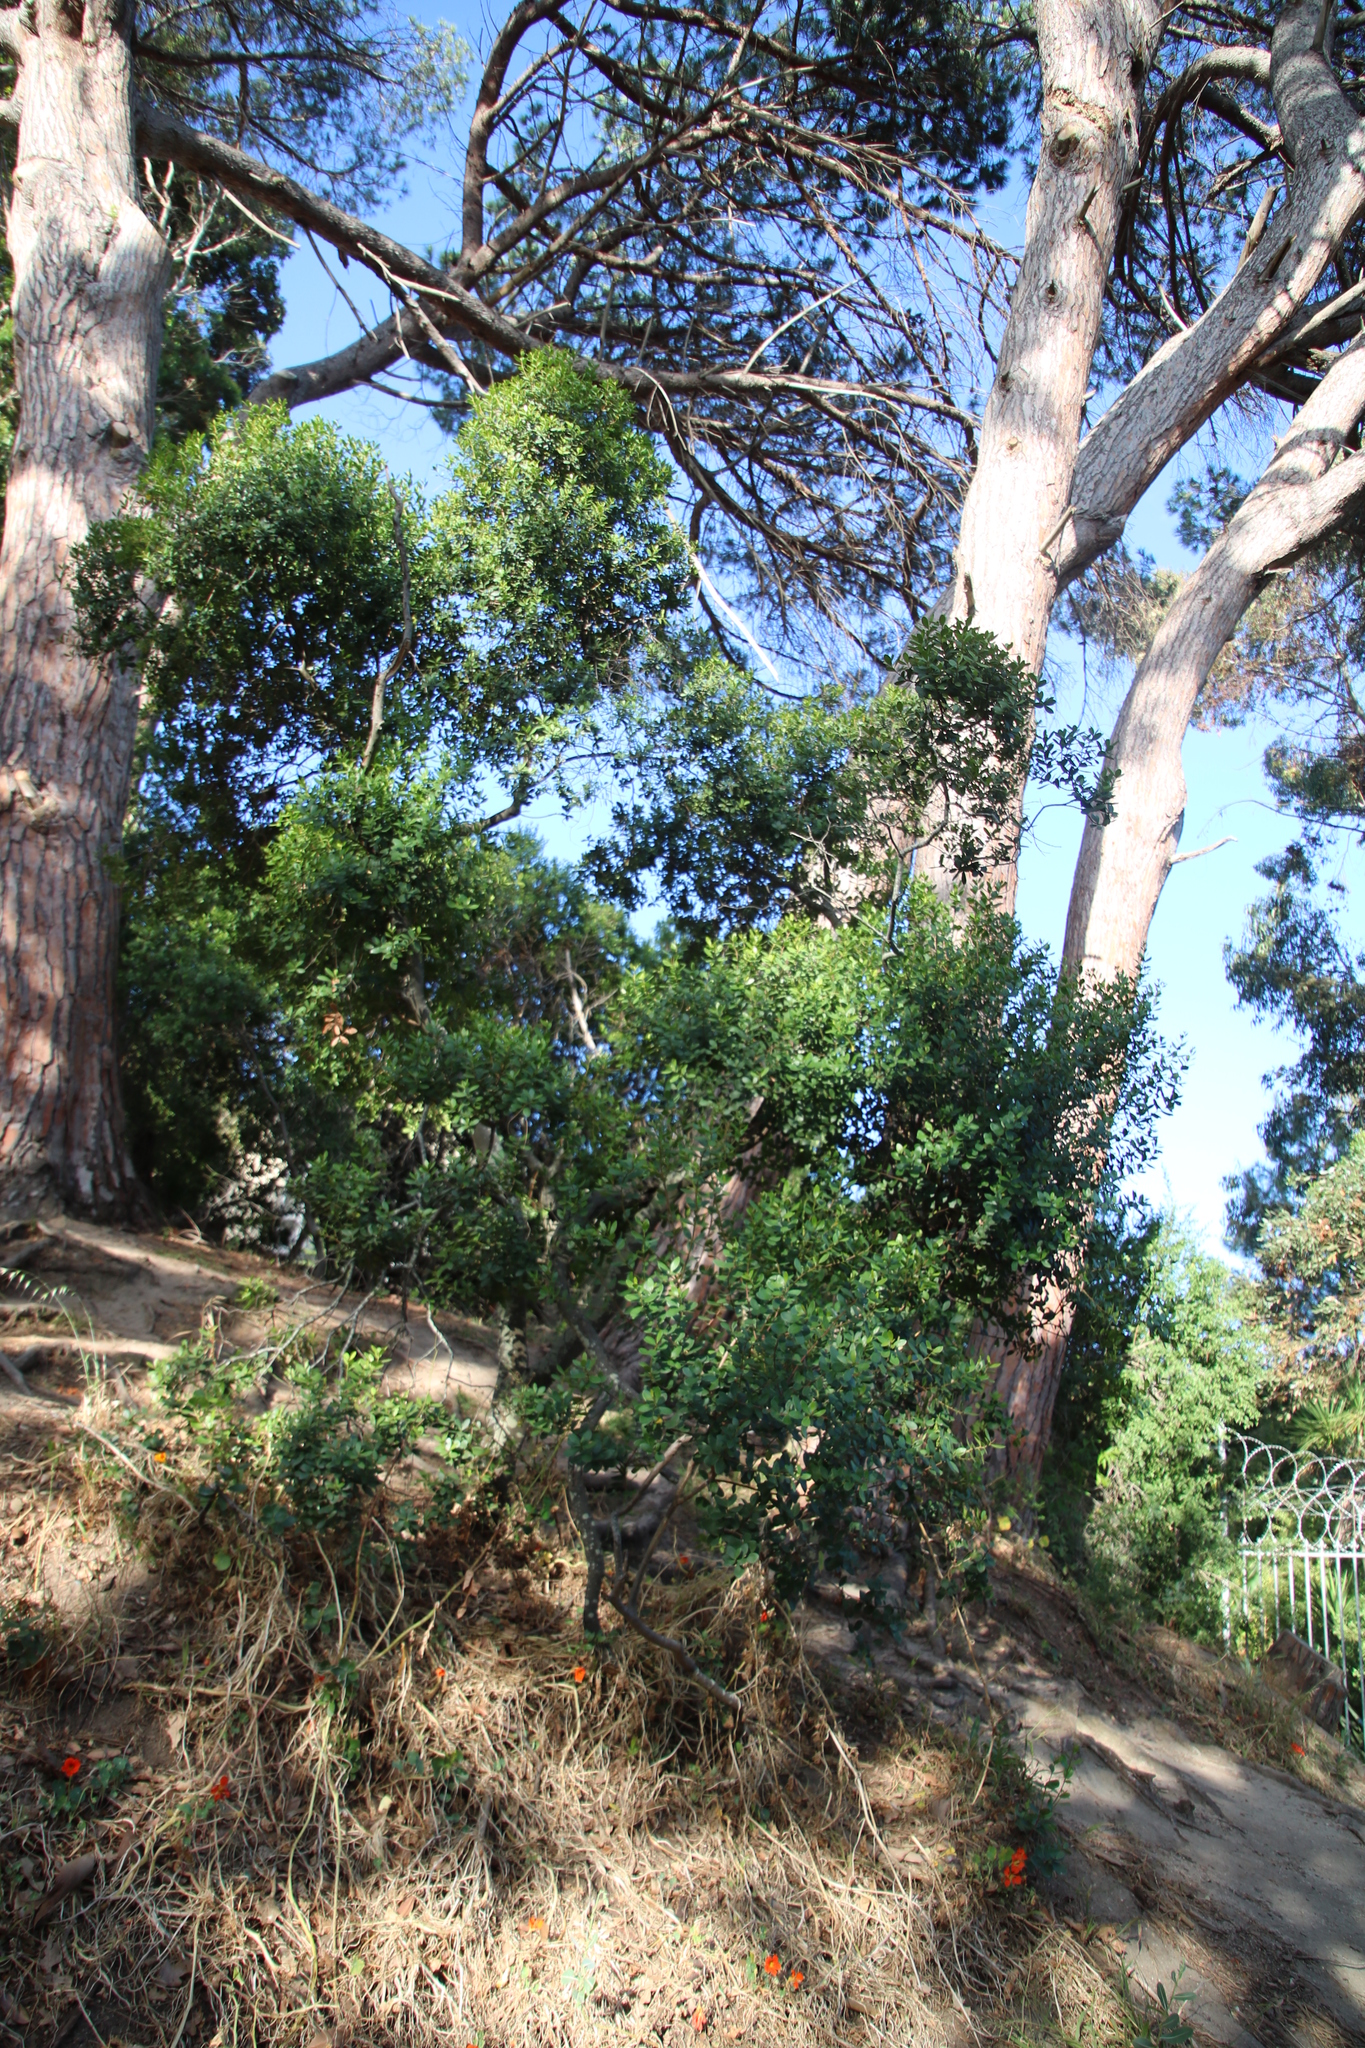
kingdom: Plantae
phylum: Tracheophyta
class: Magnoliopsida
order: Ericales
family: Ebenaceae
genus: Euclea
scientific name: Euclea racemosa
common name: Dune guarri
